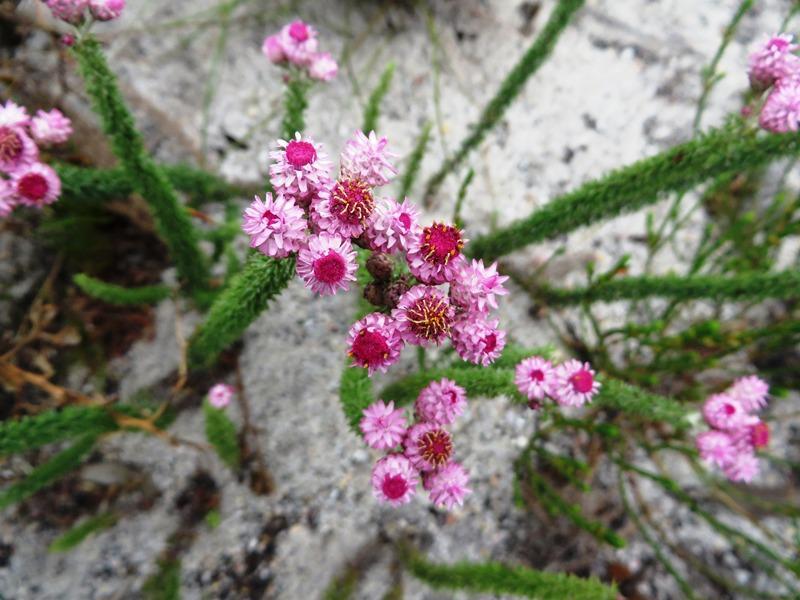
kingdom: Plantae
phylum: Tracheophyta
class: Magnoliopsida
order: Asterales
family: Asteraceae
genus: Lachnospermum
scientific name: Lachnospermum umbellatum
